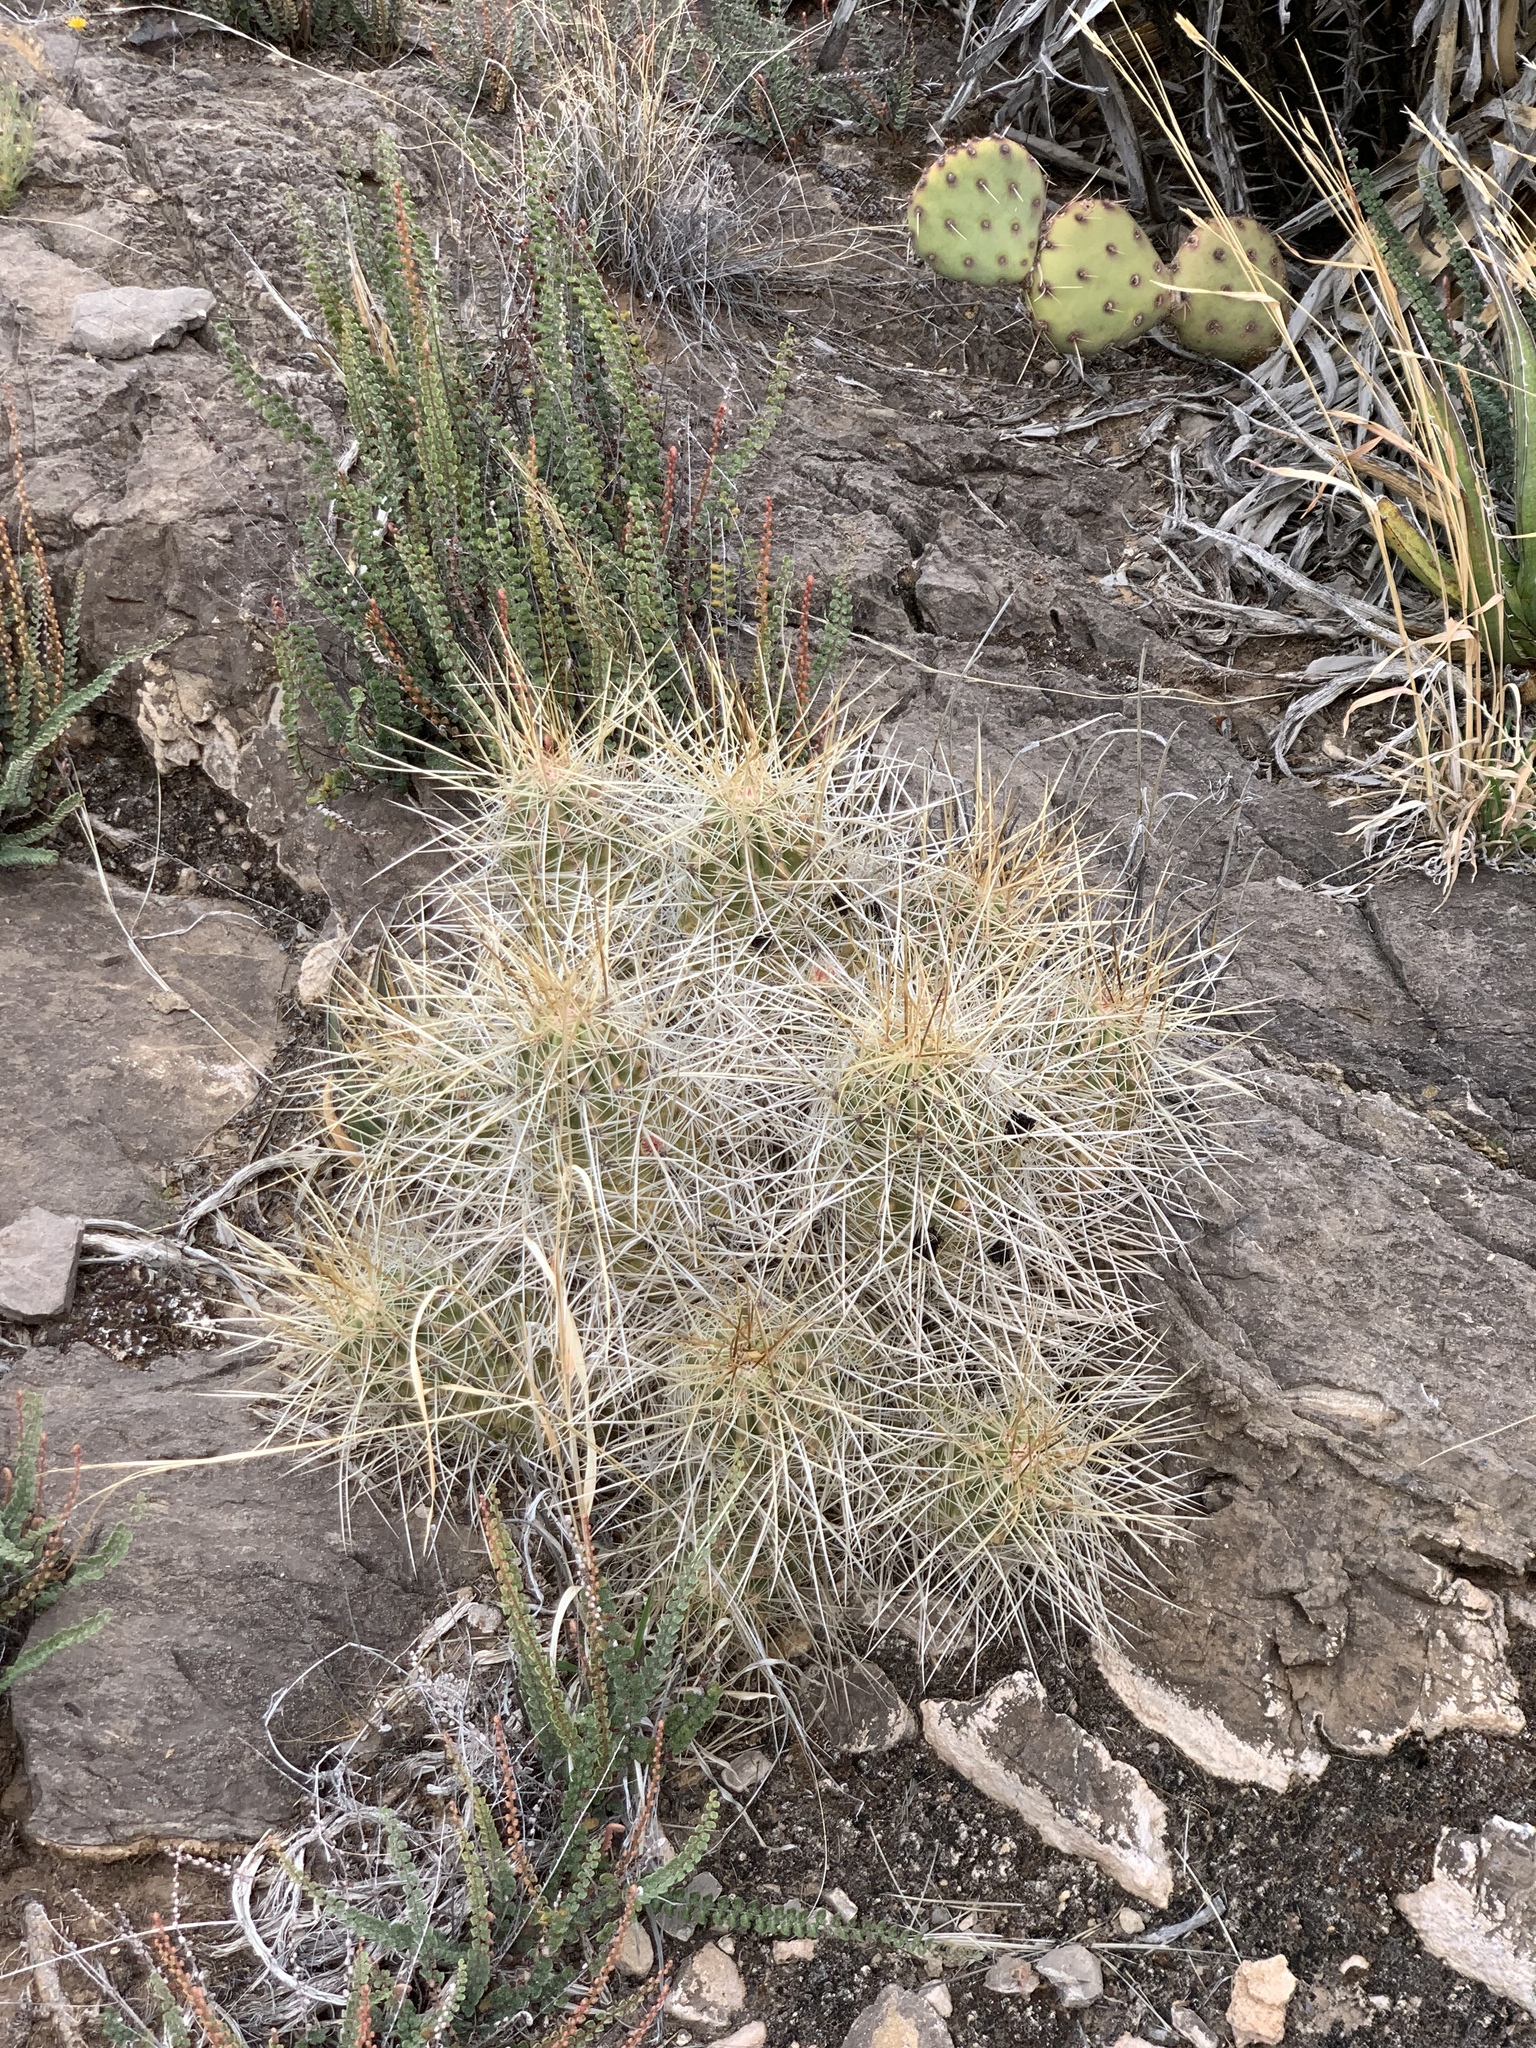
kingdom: Plantae
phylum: Tracheophyta
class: Magnoliopsida
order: Caryophyllales
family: Cactaceae
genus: Echinocereus
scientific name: Echinocereus stramineus
